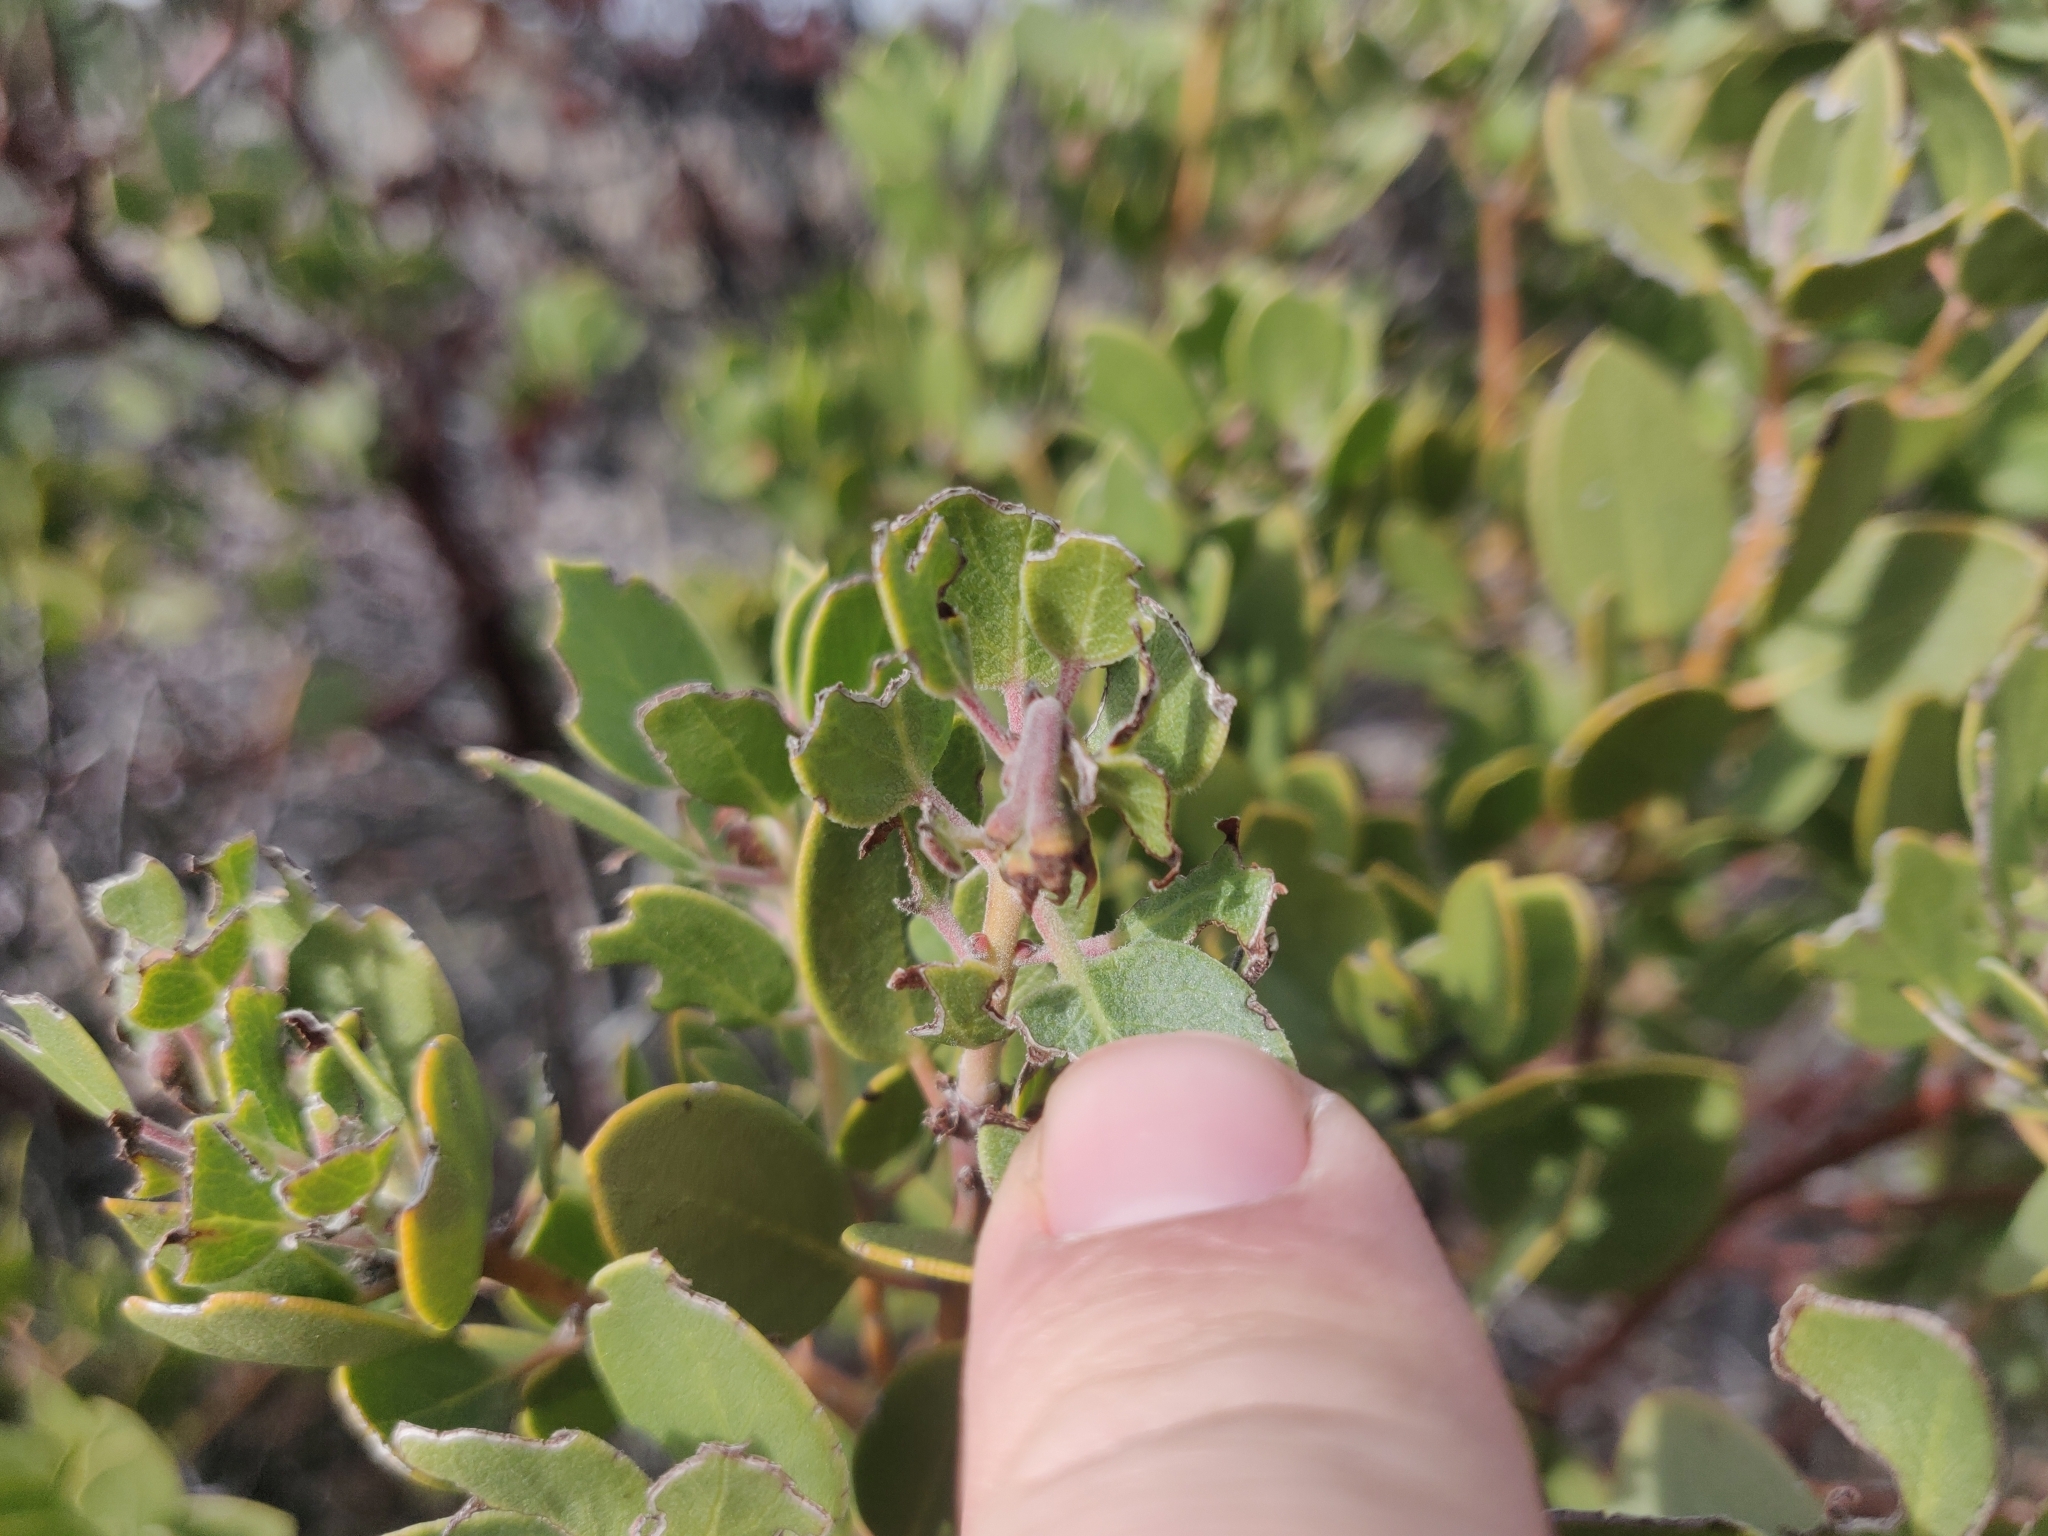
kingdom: Plantae
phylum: Tracheophyta
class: Magnoliopsida
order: Ericales
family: Ericaceae
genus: Arctostaphylos
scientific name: Arctostaphylos pungens
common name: Mexican manzanita
